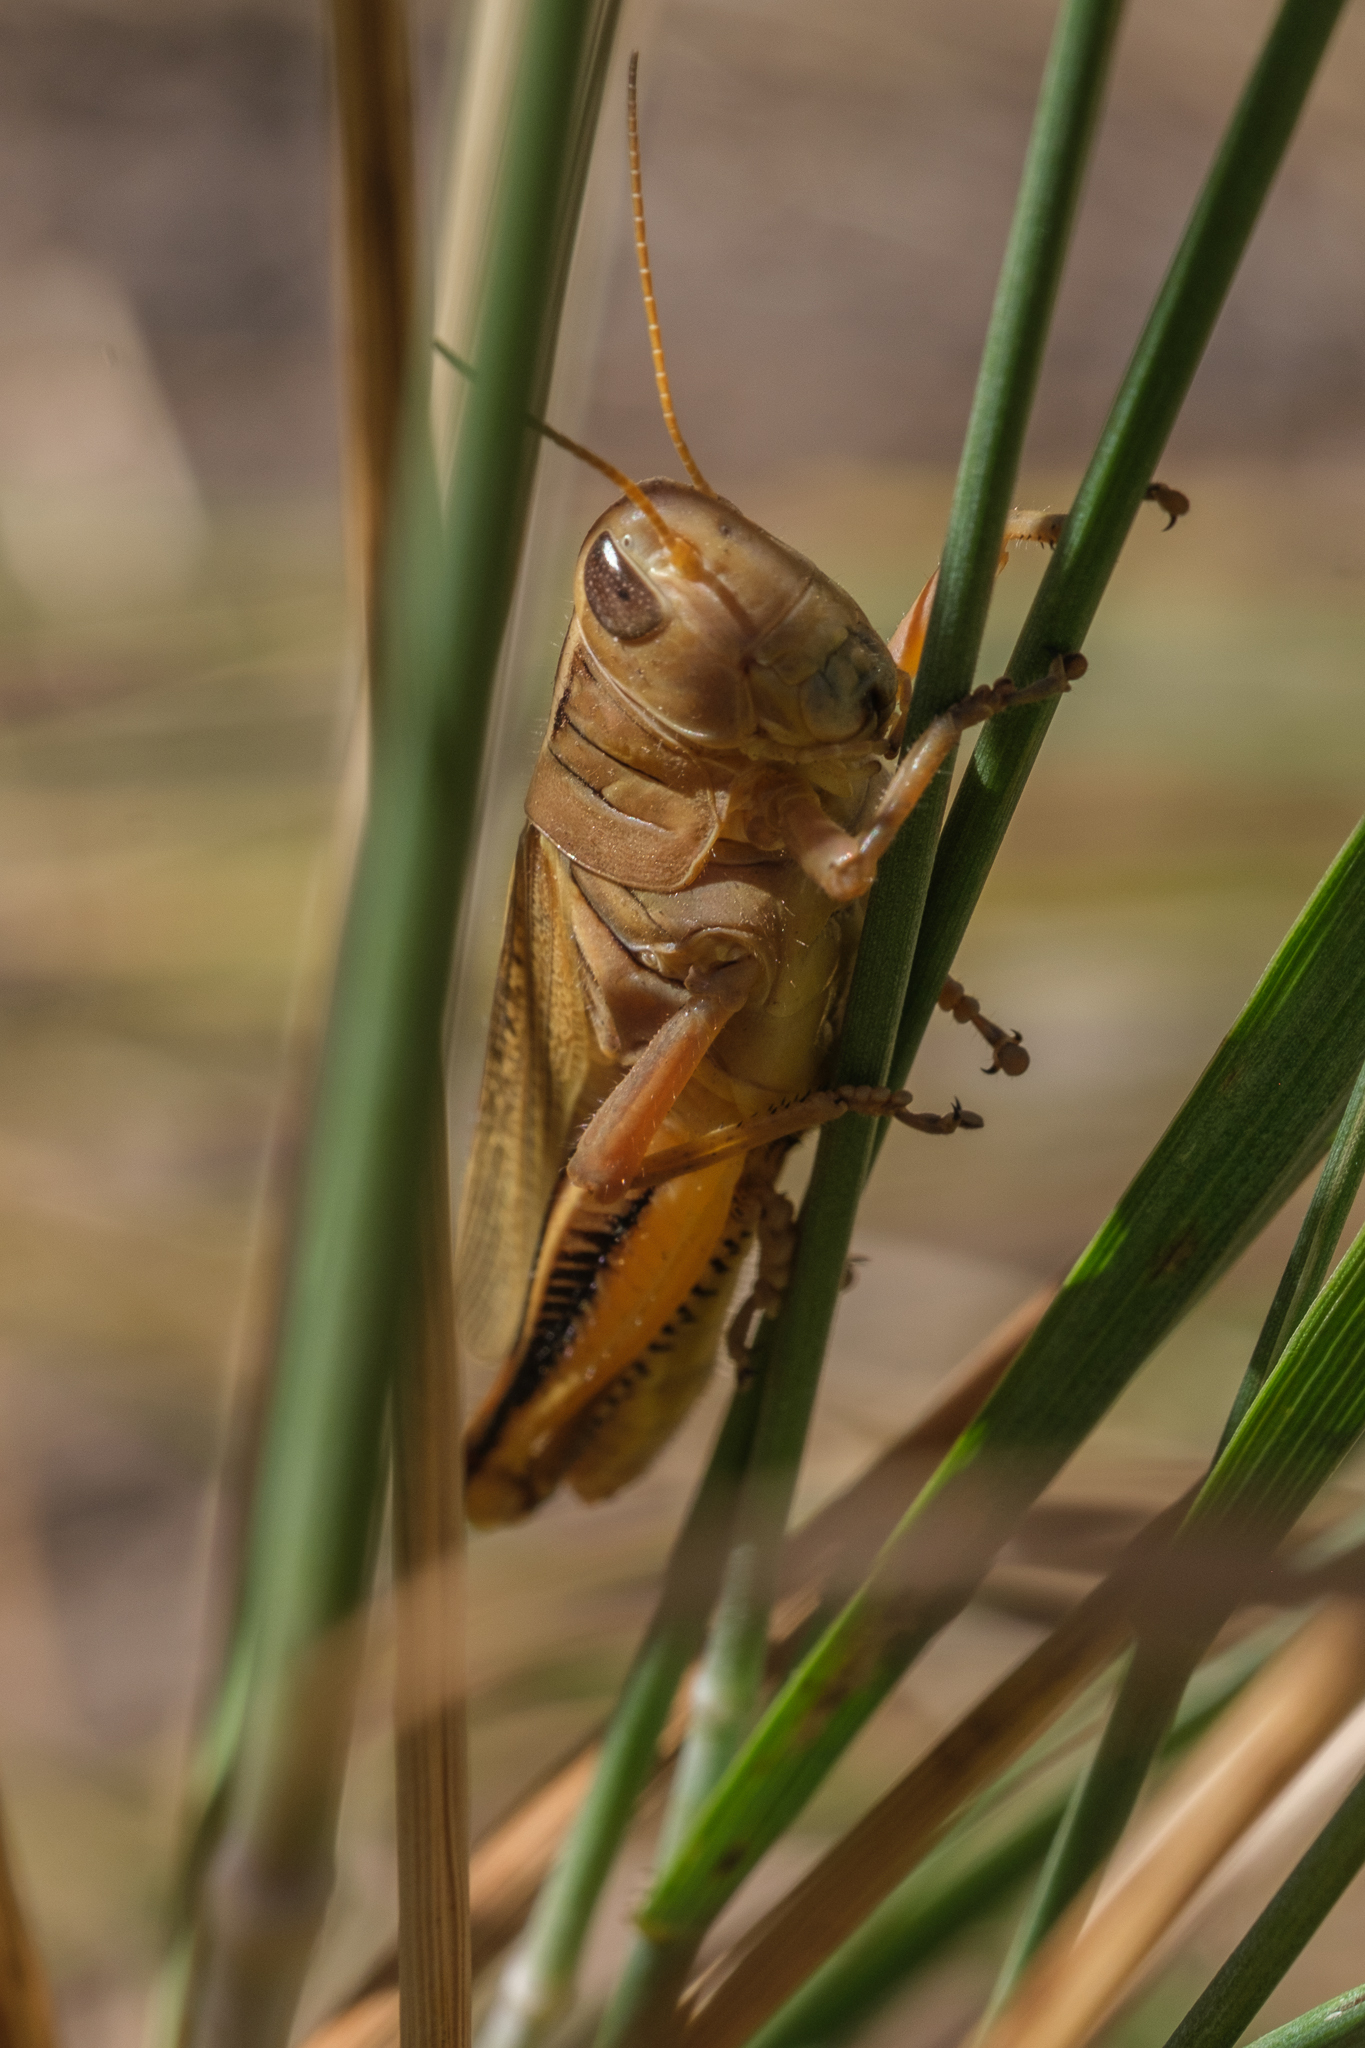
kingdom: Animalia
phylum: Arthropoda
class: Insecta
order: Orthoptera
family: Acrididae
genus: Melanoplus
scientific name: Melanoplus bivittatus
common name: Two-striped grasshopper
